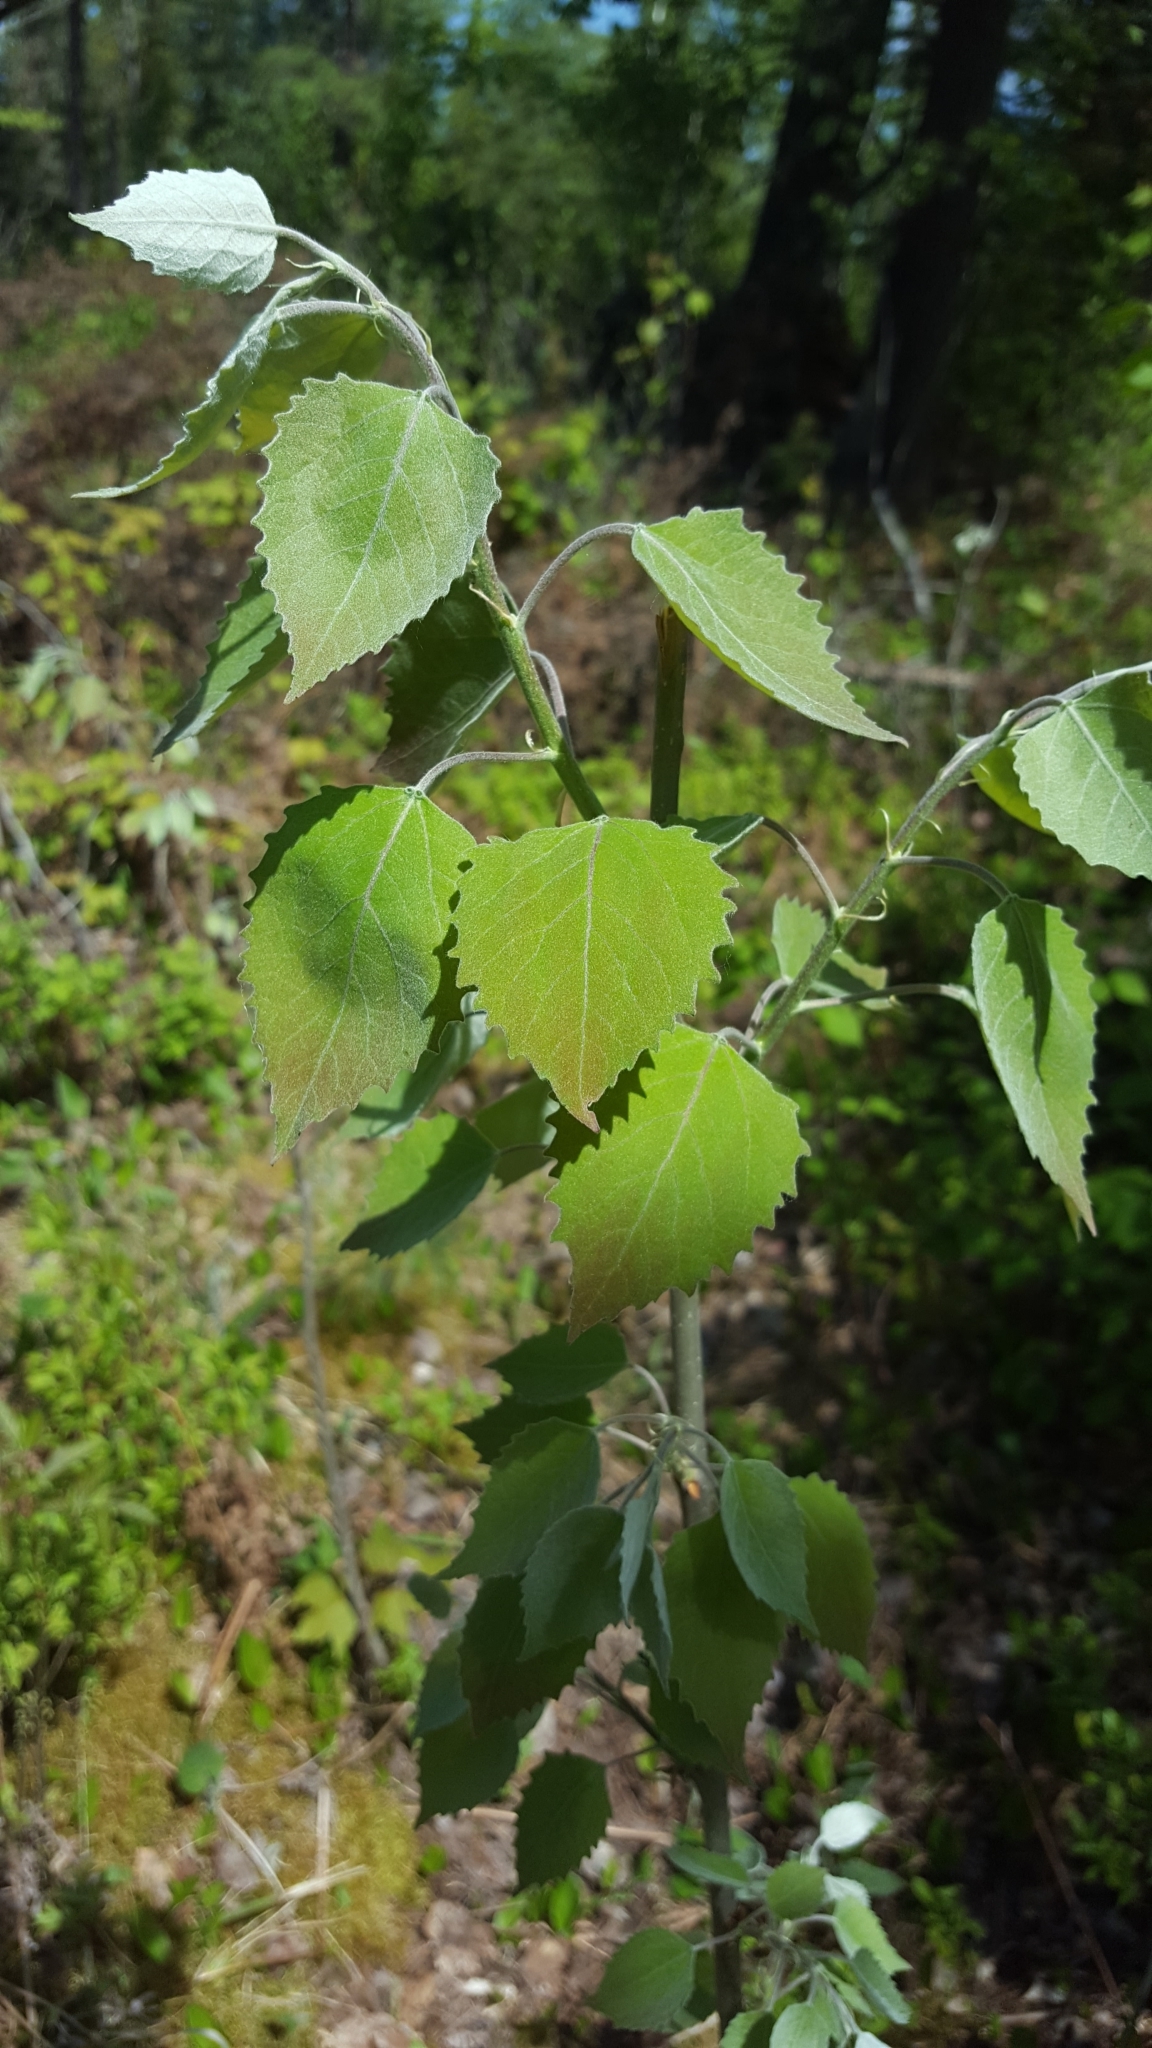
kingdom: Plantae
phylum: Tracheophyta
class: Magnoliopsida
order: Malpighiales
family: Salicaceae
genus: Populus
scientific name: Populus grandidentata
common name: Bigtooth aspen
